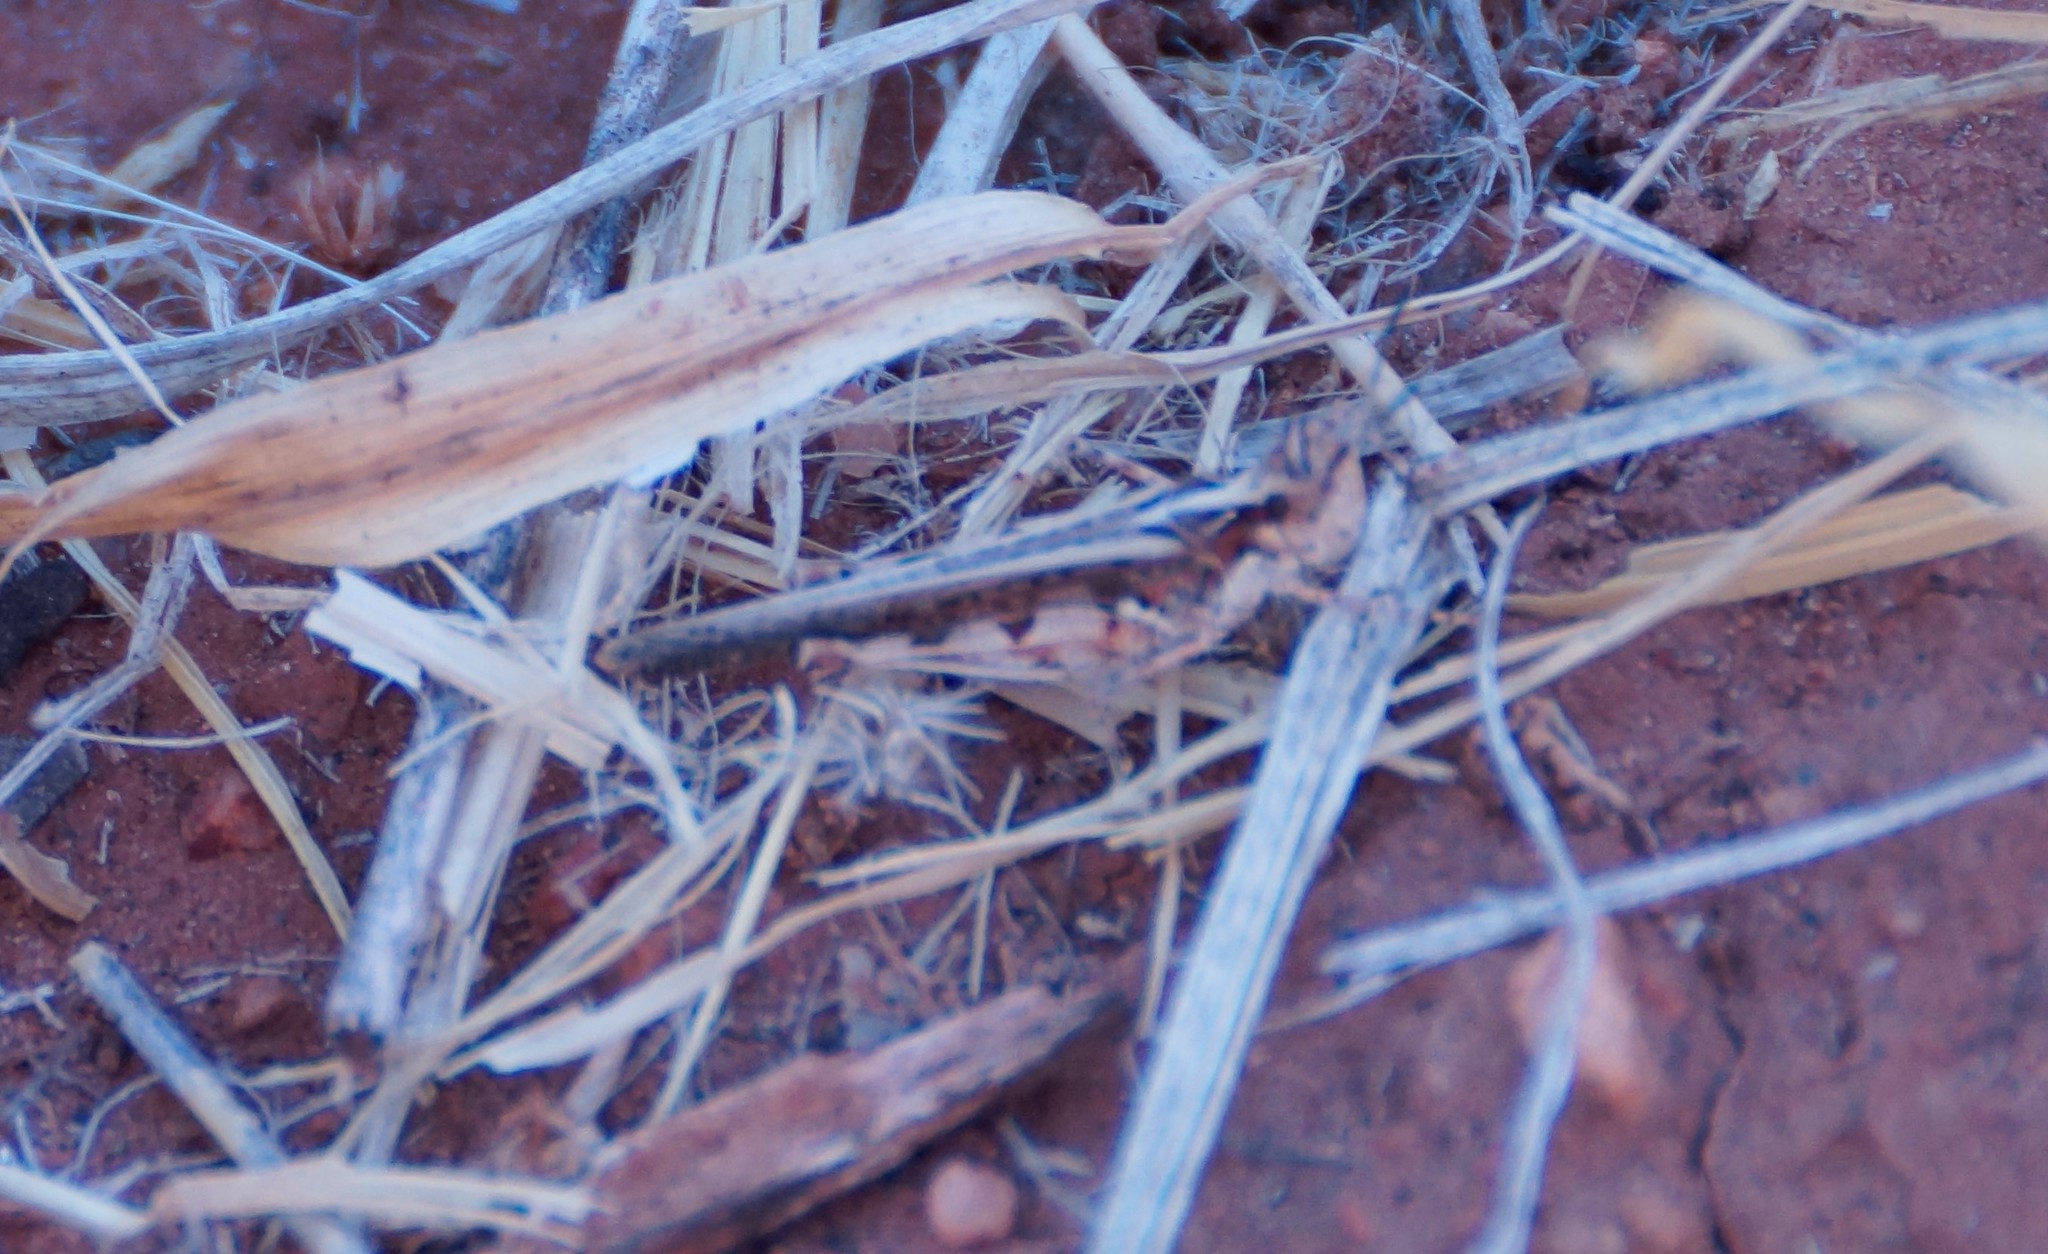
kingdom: Animalia
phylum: Arthropoda
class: Insecta
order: Orthoptera
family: Acrididae
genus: Pycnostictus
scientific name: Pycnostictus seriatus
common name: Common bandwing
